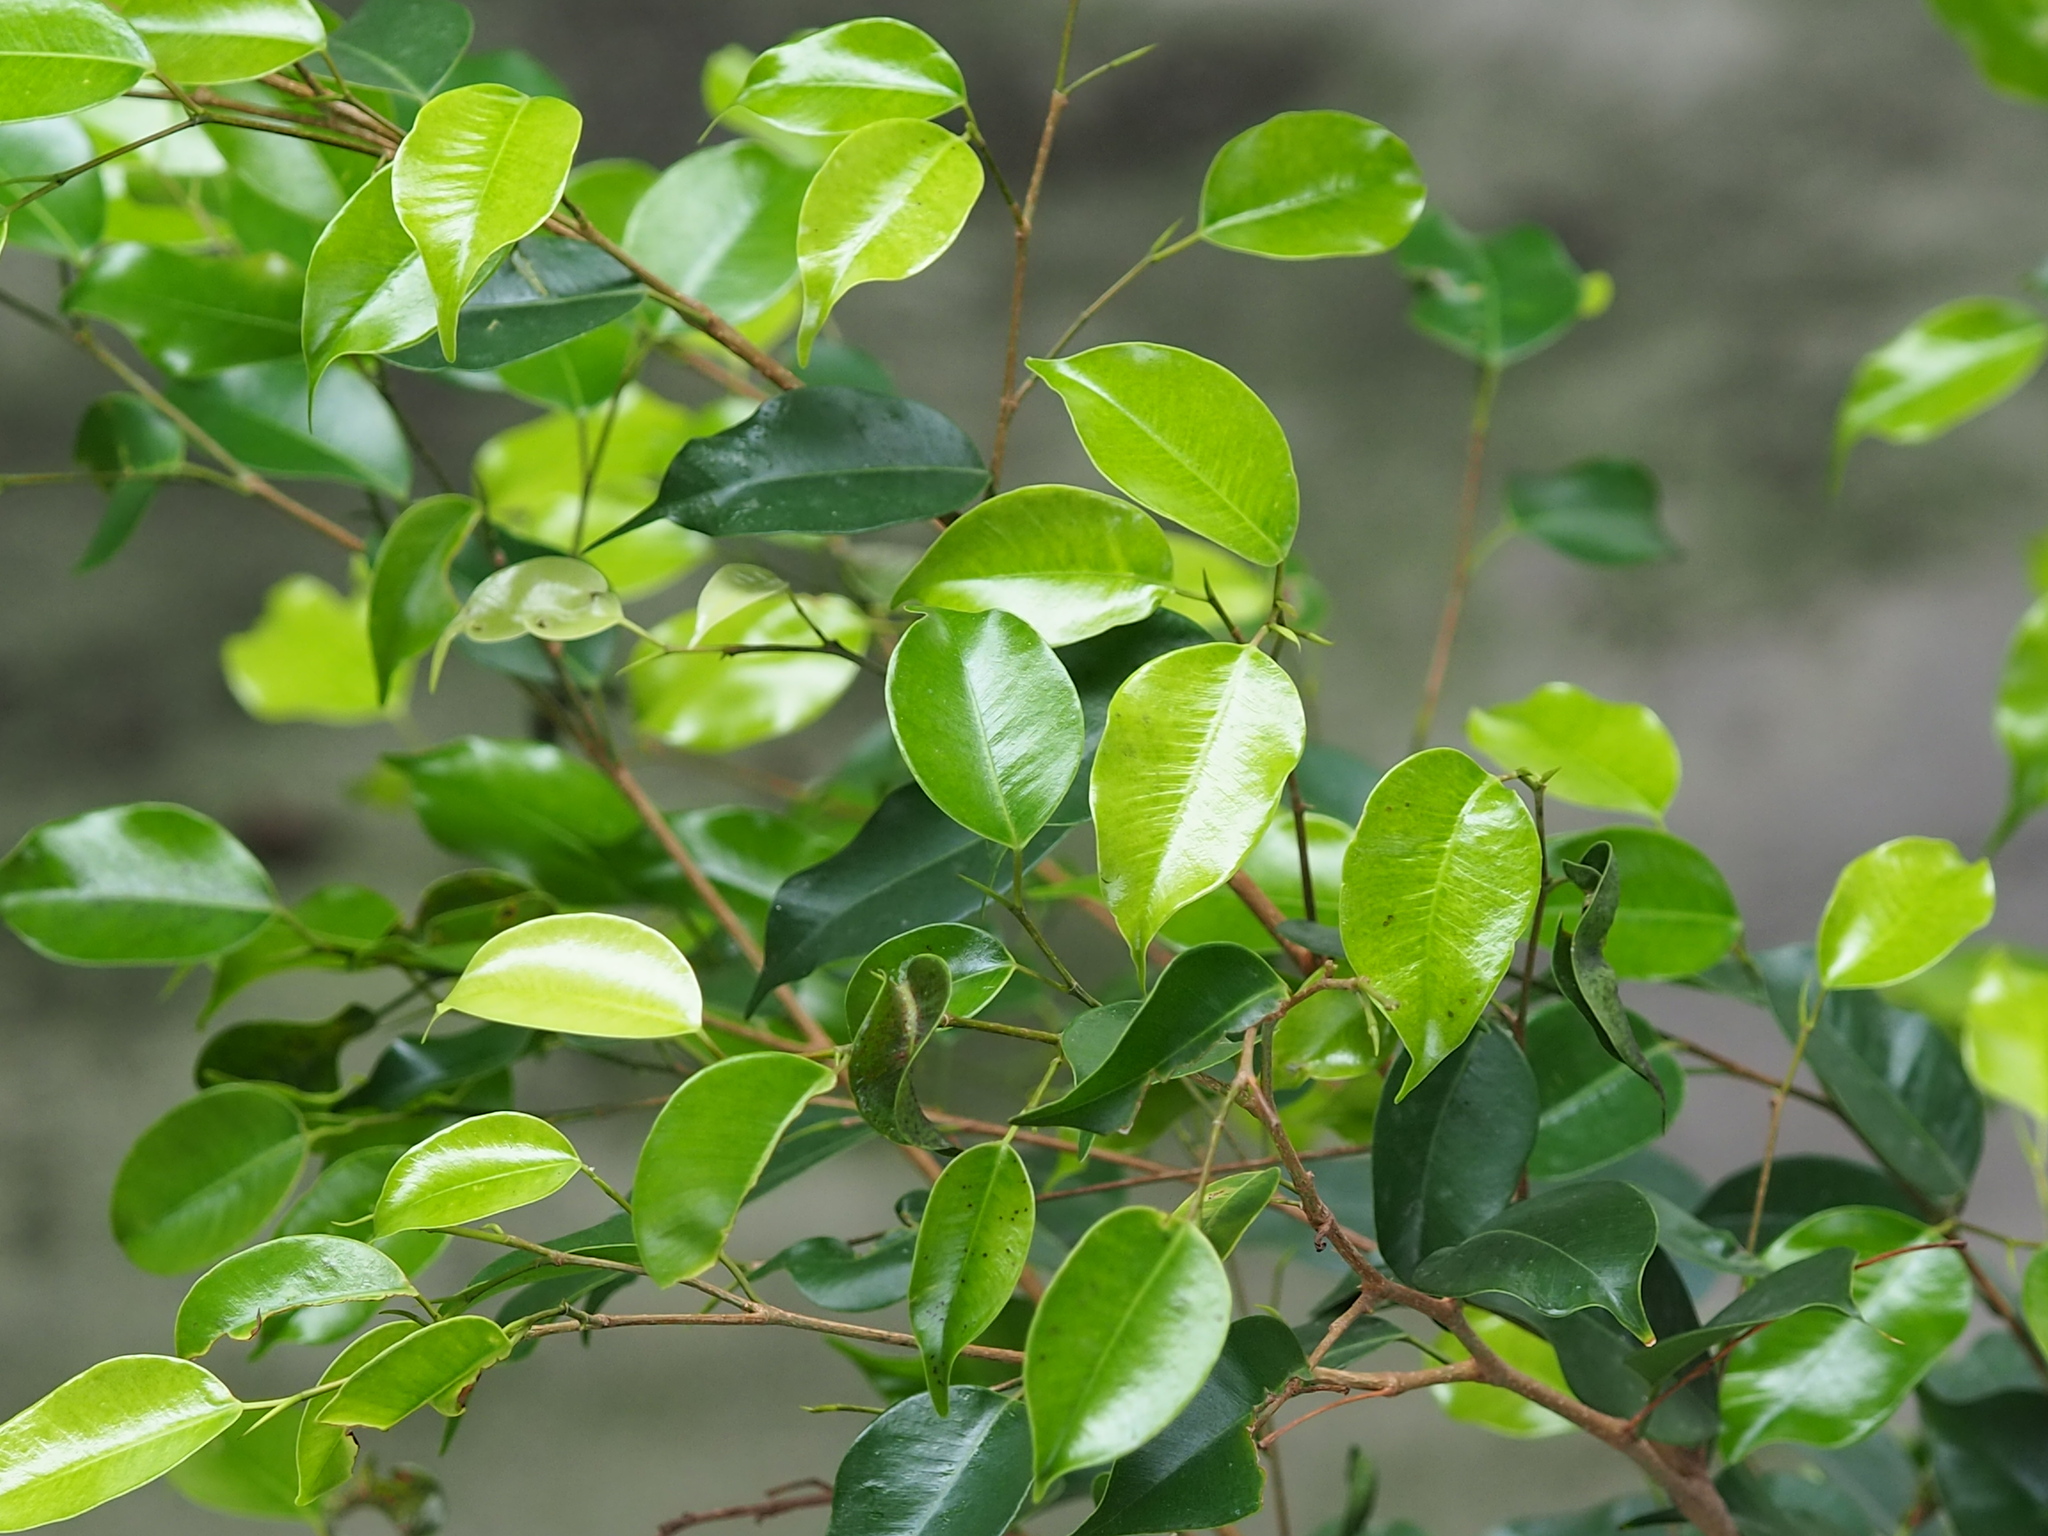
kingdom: Plantae
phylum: Tracheophyta
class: Magnoliopsida
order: Rosales
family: Moraceae
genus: Ficus
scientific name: Ficus benjamina
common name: Weeping fig
